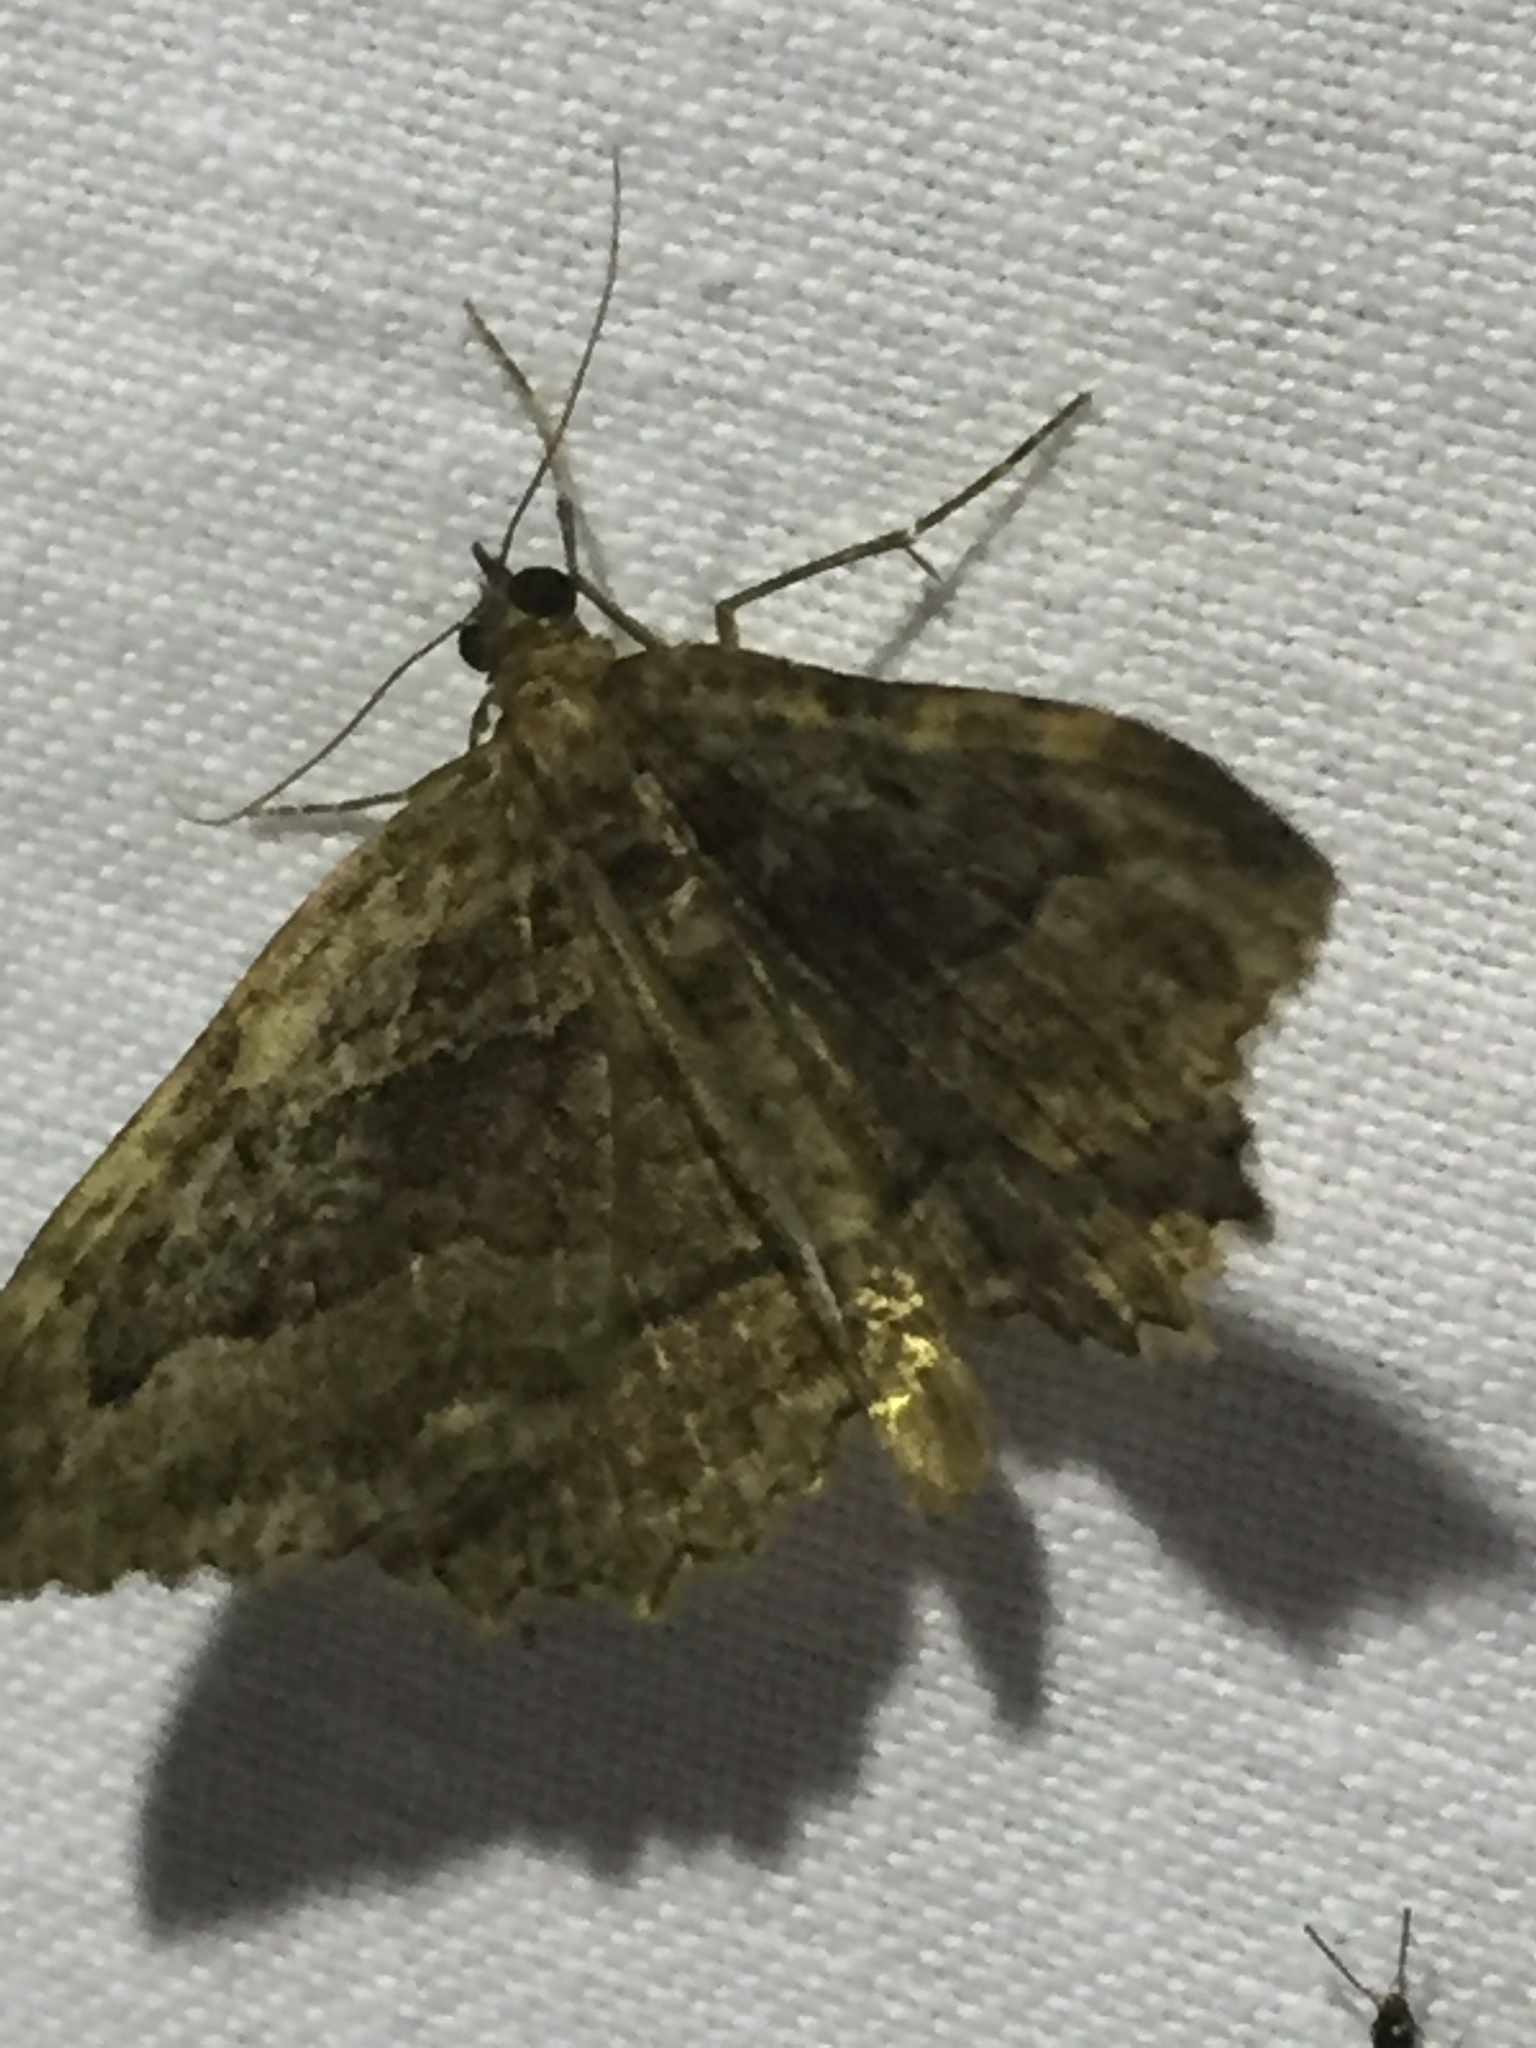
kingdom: Animalia
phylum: Arthropoda
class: Insecta
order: Lepidoptera
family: Geometridae
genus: Philereme
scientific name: Philereme transversata
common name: Dark umber
